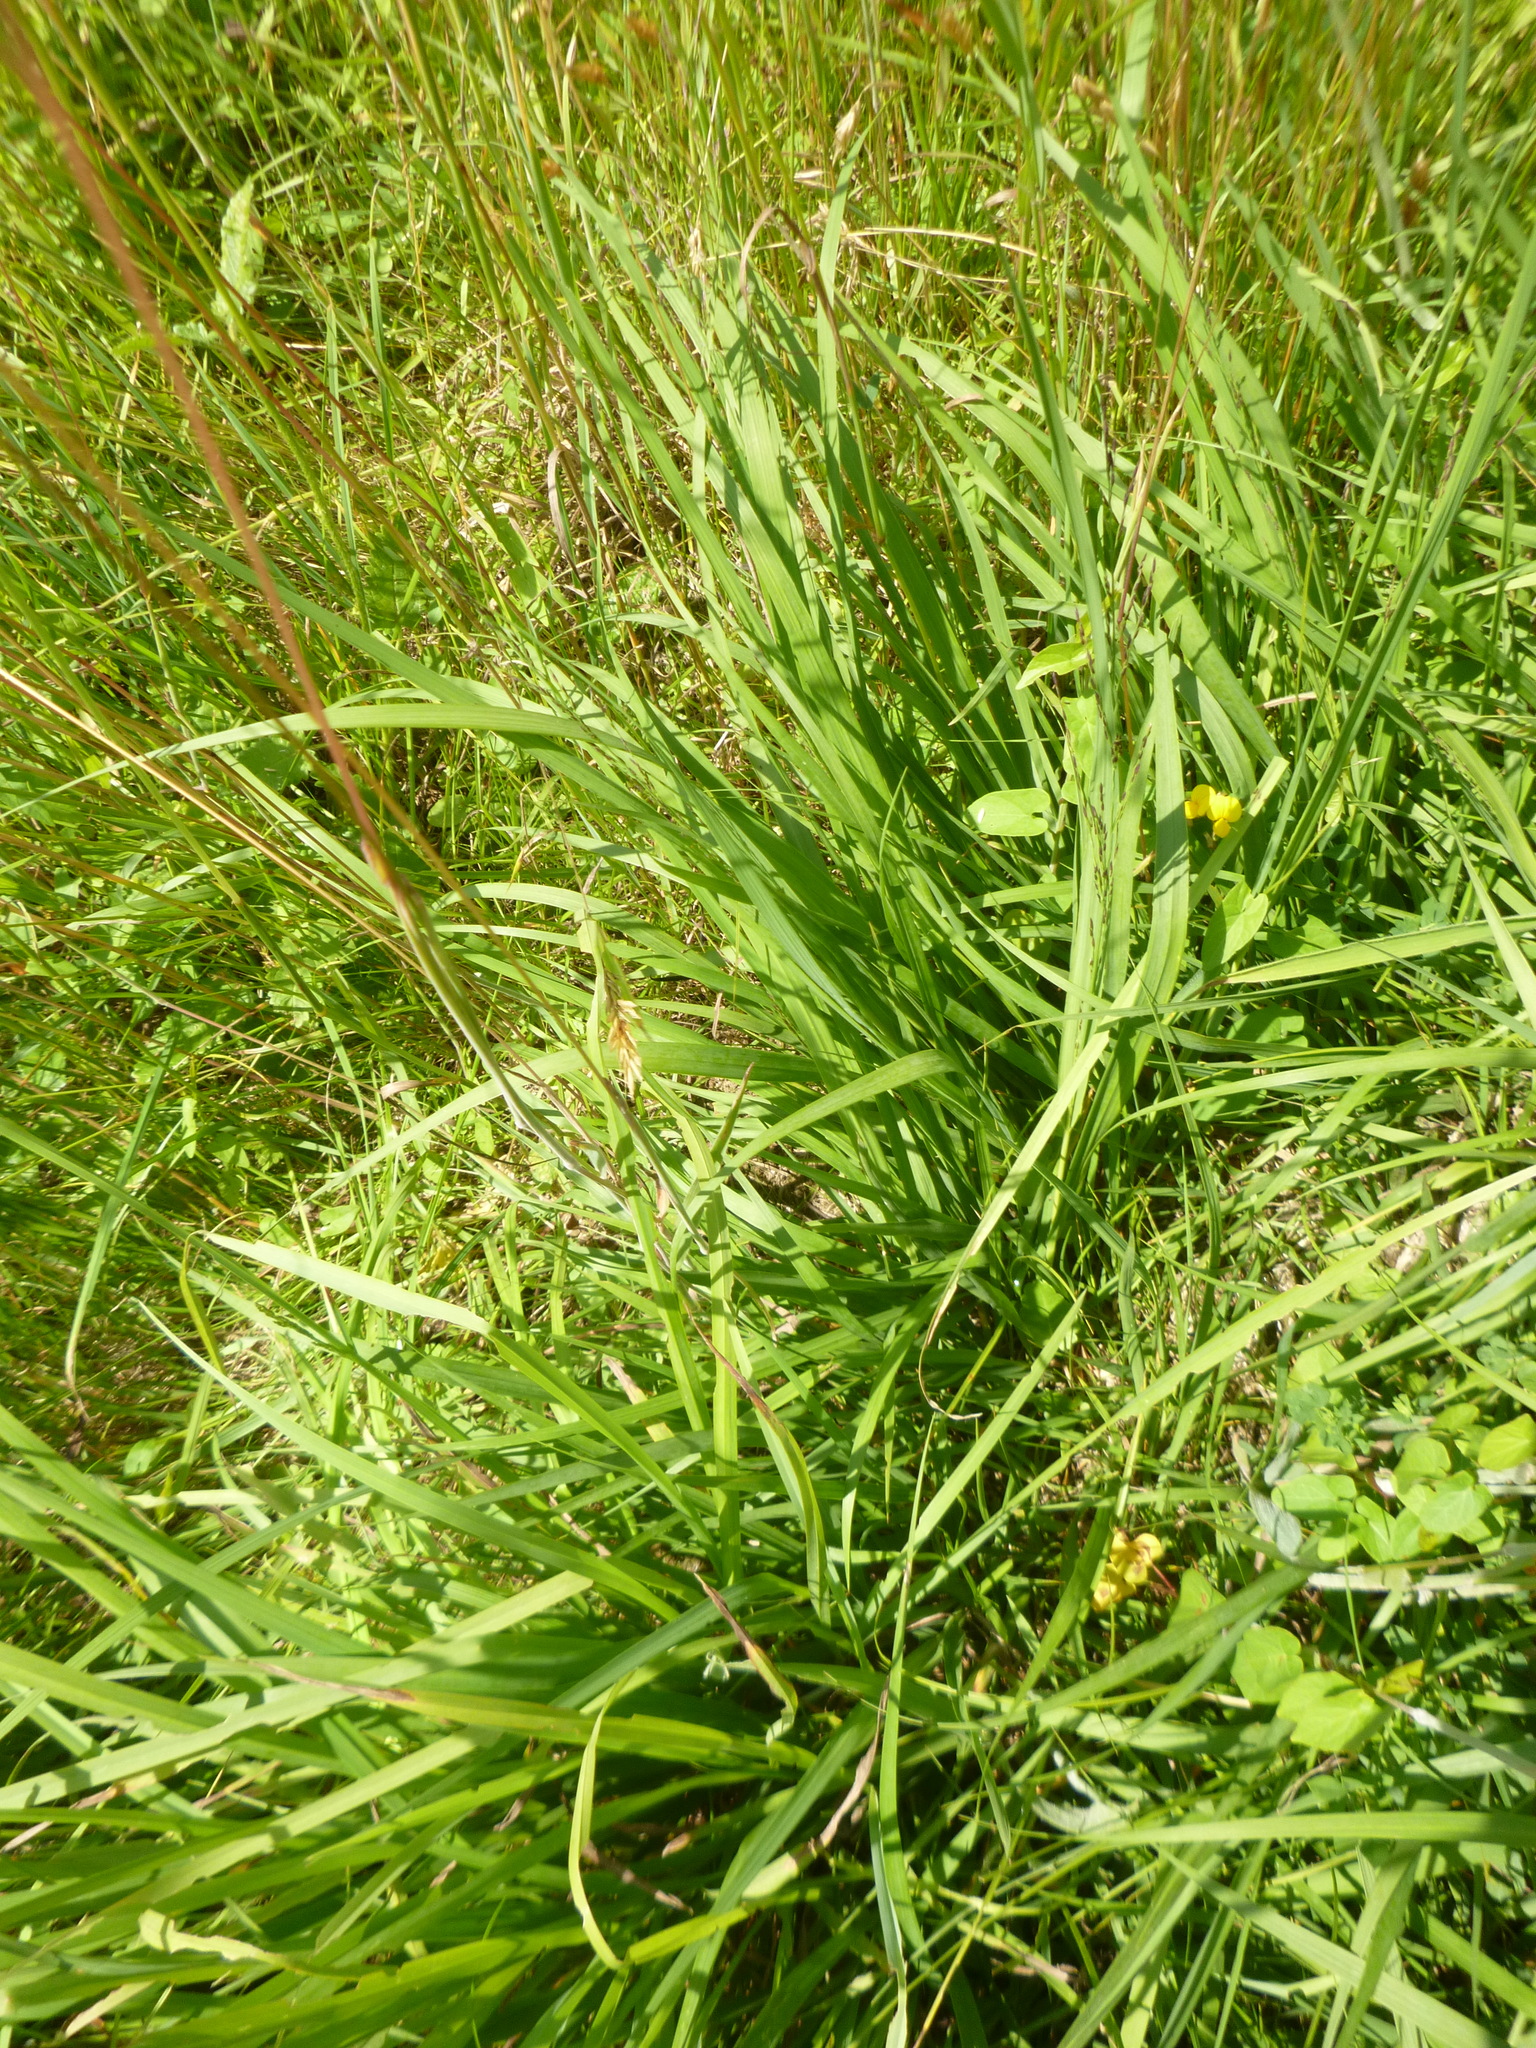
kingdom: Plantae
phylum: Tracheophyta
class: Liliopsida
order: Poales
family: Poaceae
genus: Molinia
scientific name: Molinia caerulea
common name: Purple moor-grass
